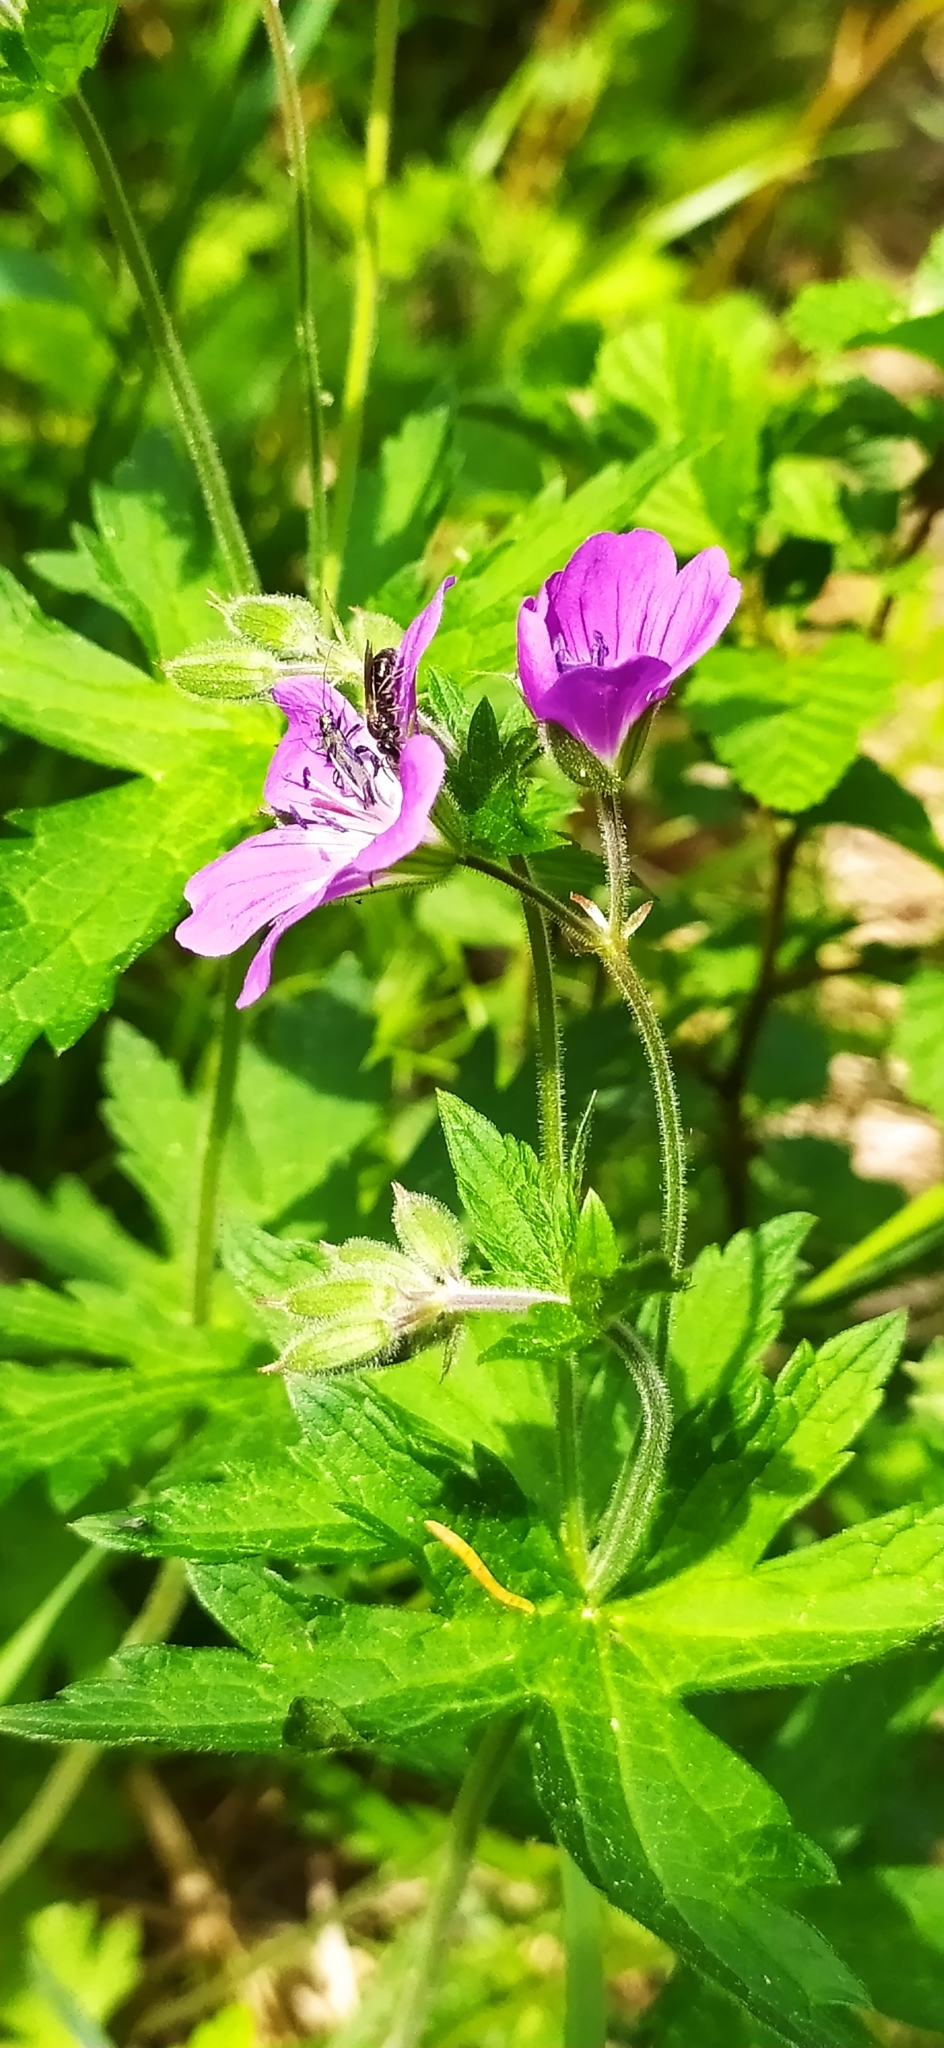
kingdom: Plantae
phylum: Tracheophyta
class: Magnoliopsida
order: Geraniales
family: Geraniaceae
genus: Geranium
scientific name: Geranium sylvaticum
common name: Wood crane's-bill
